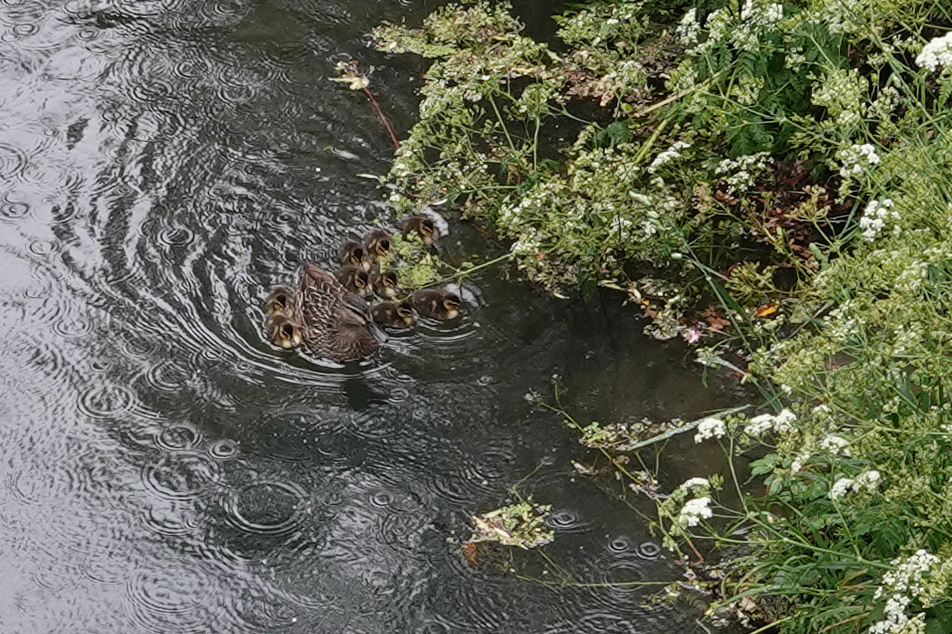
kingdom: Animalia
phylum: Chordata
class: Aves
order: Anseriformes
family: Anatidae
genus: Anas
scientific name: Anas
